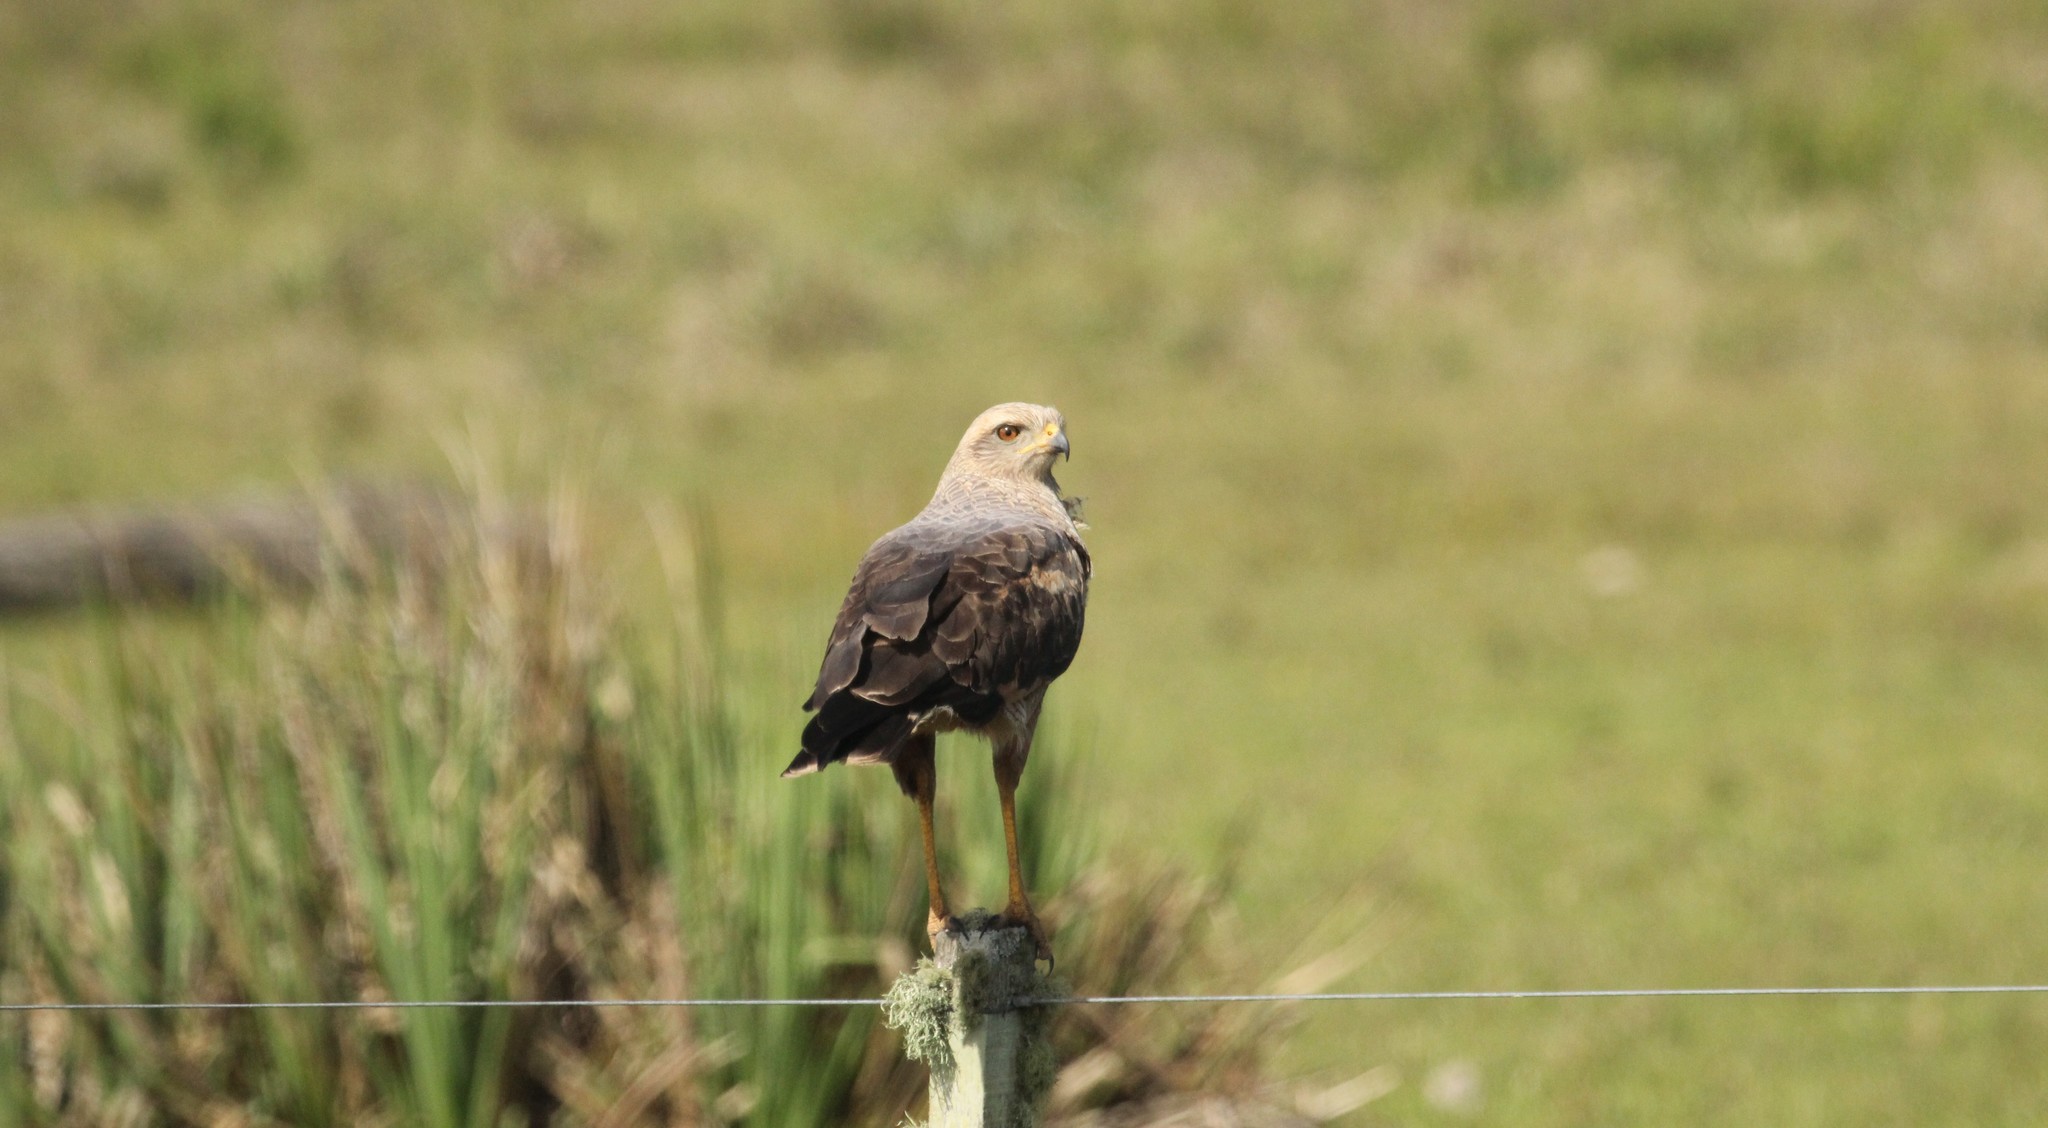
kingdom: Animalia
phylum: Chordata
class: Aves
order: Accipitriformes
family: Accipitridae
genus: Buteogallus
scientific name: Buteogallus meridionalis
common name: Savanna hawk
